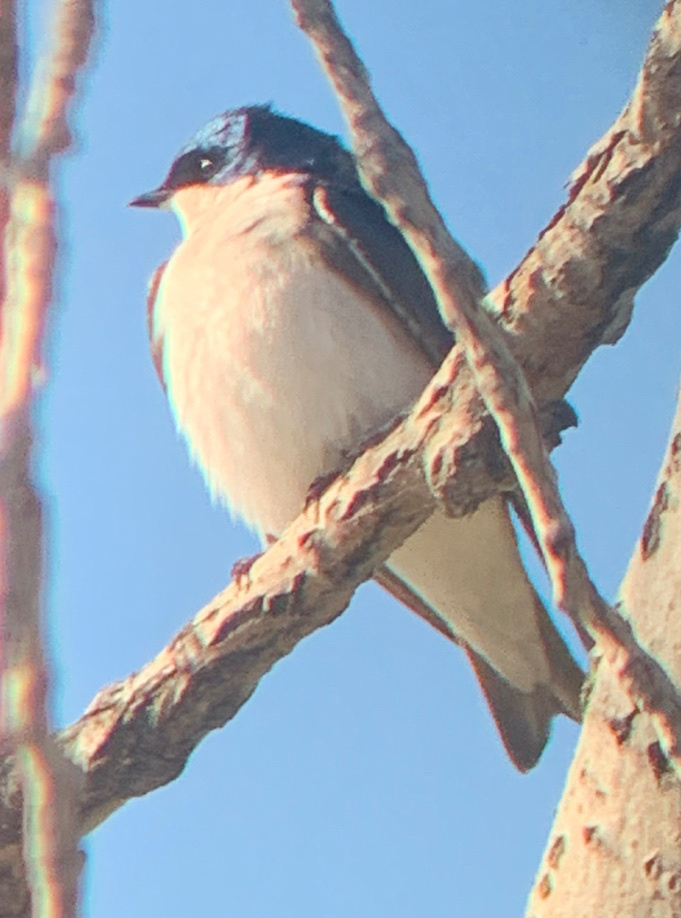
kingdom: Animalia
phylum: Chordata
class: Aves
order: Passeriformes
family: Hirundinidae
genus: Tachycineta
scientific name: Tachycineta bicolor
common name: Tree swallow
